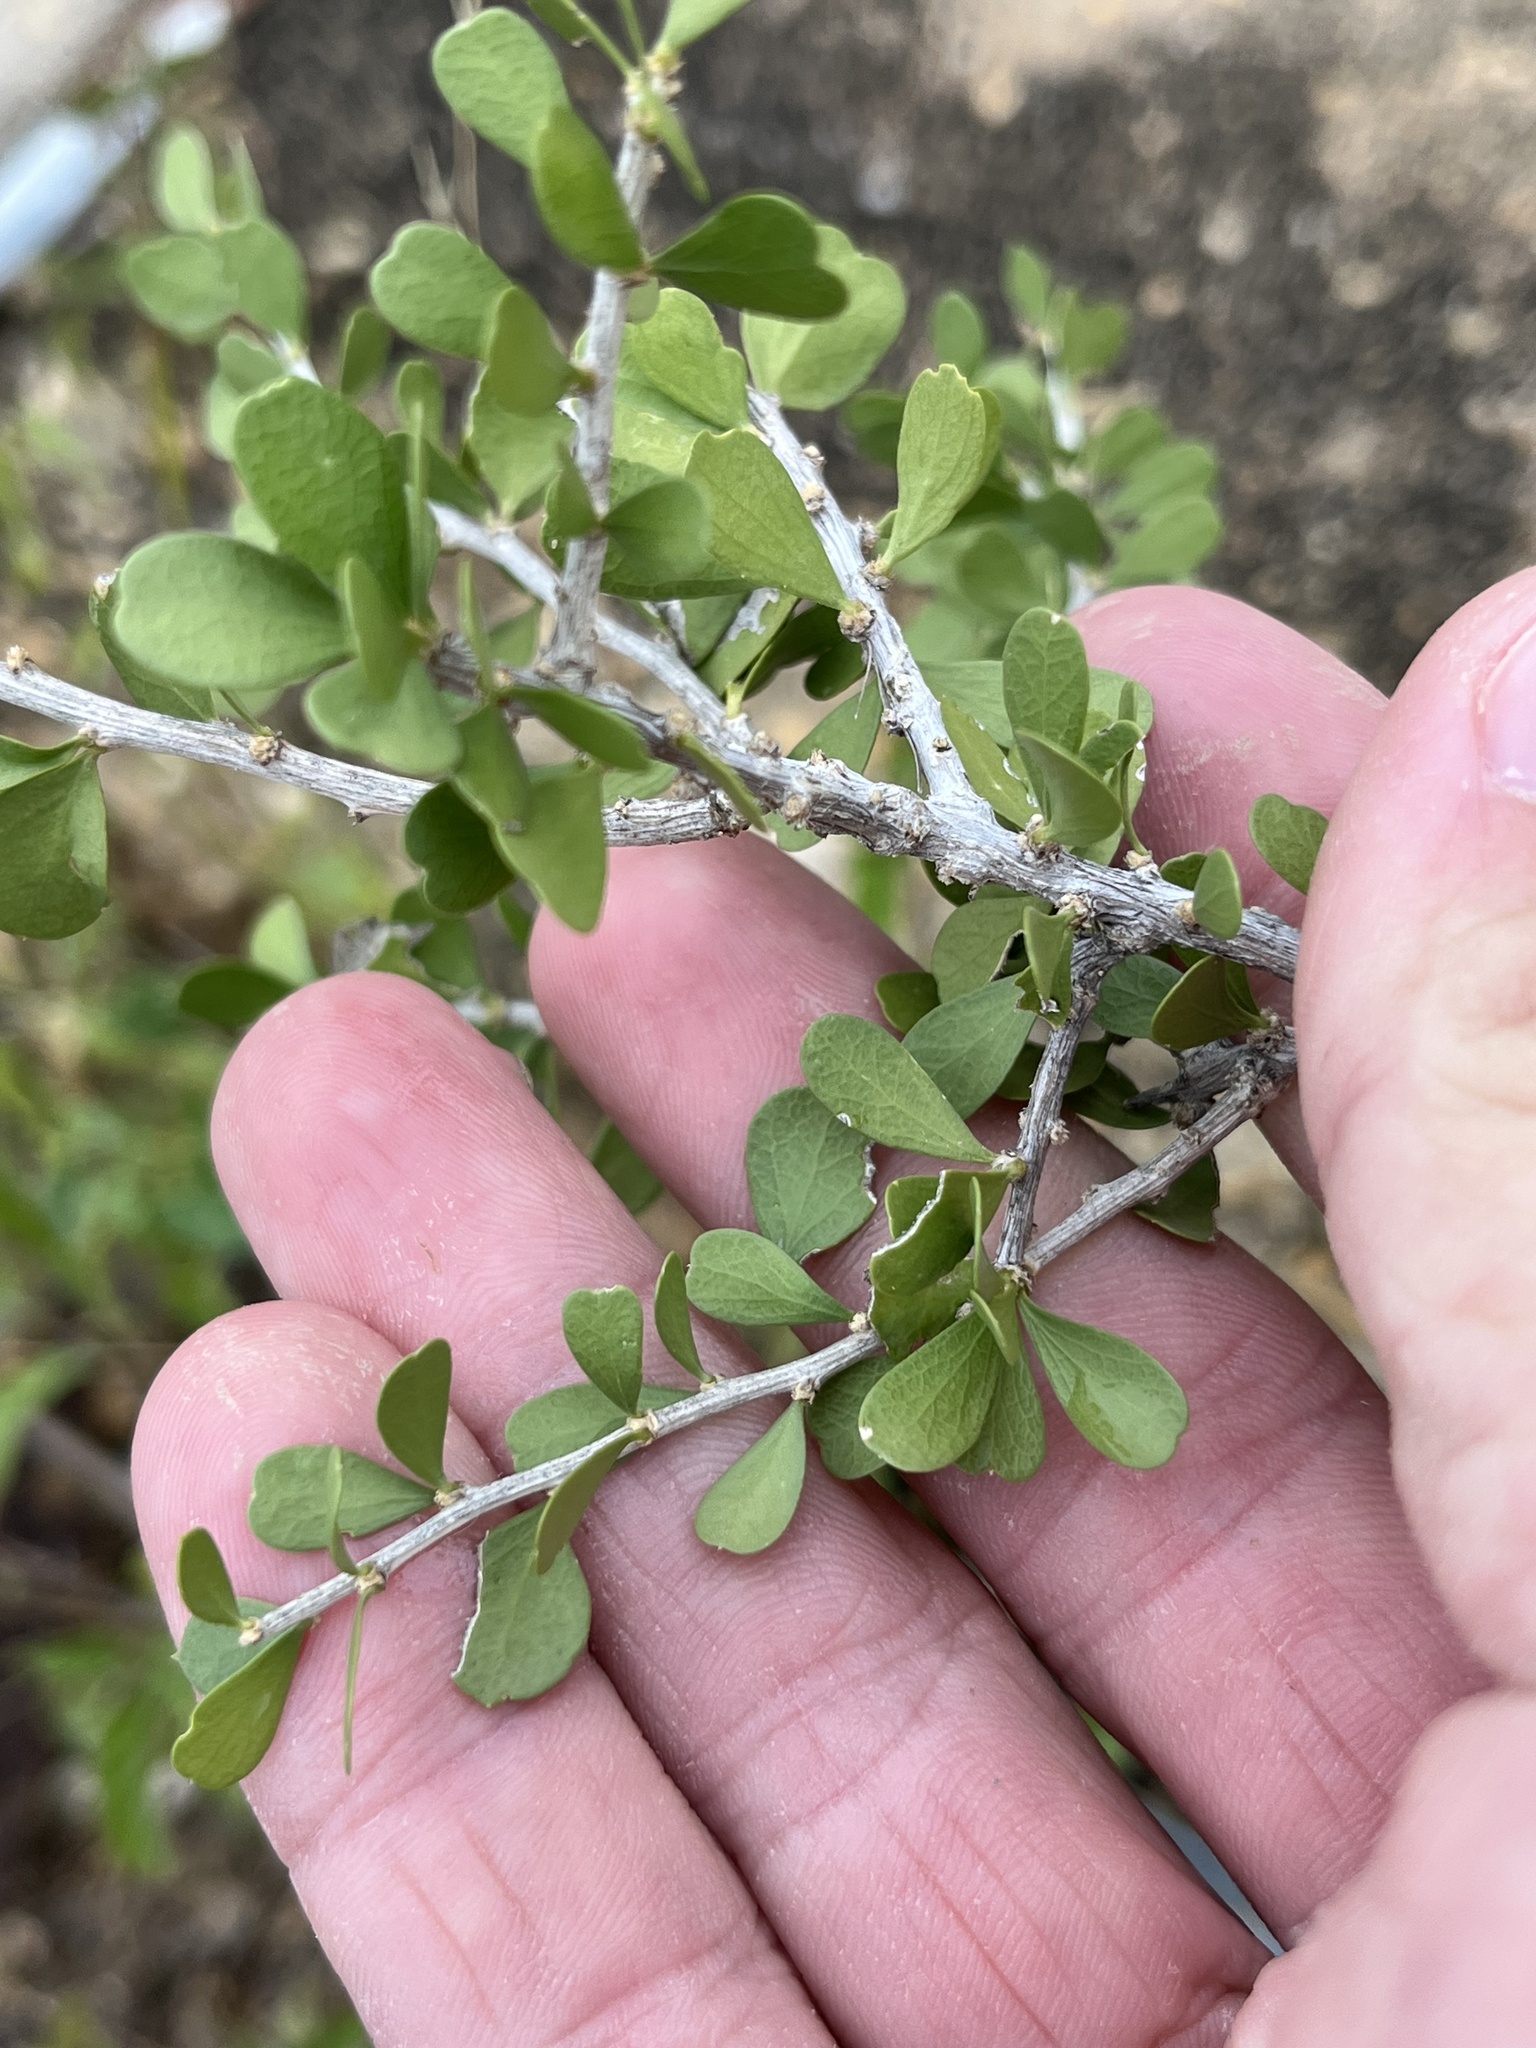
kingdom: Plantae
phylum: Tracheophyta
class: Magnoliopsida
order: Celastrales
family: Celastraceae
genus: Schaefferia
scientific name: Schaefferia cuneifolia
